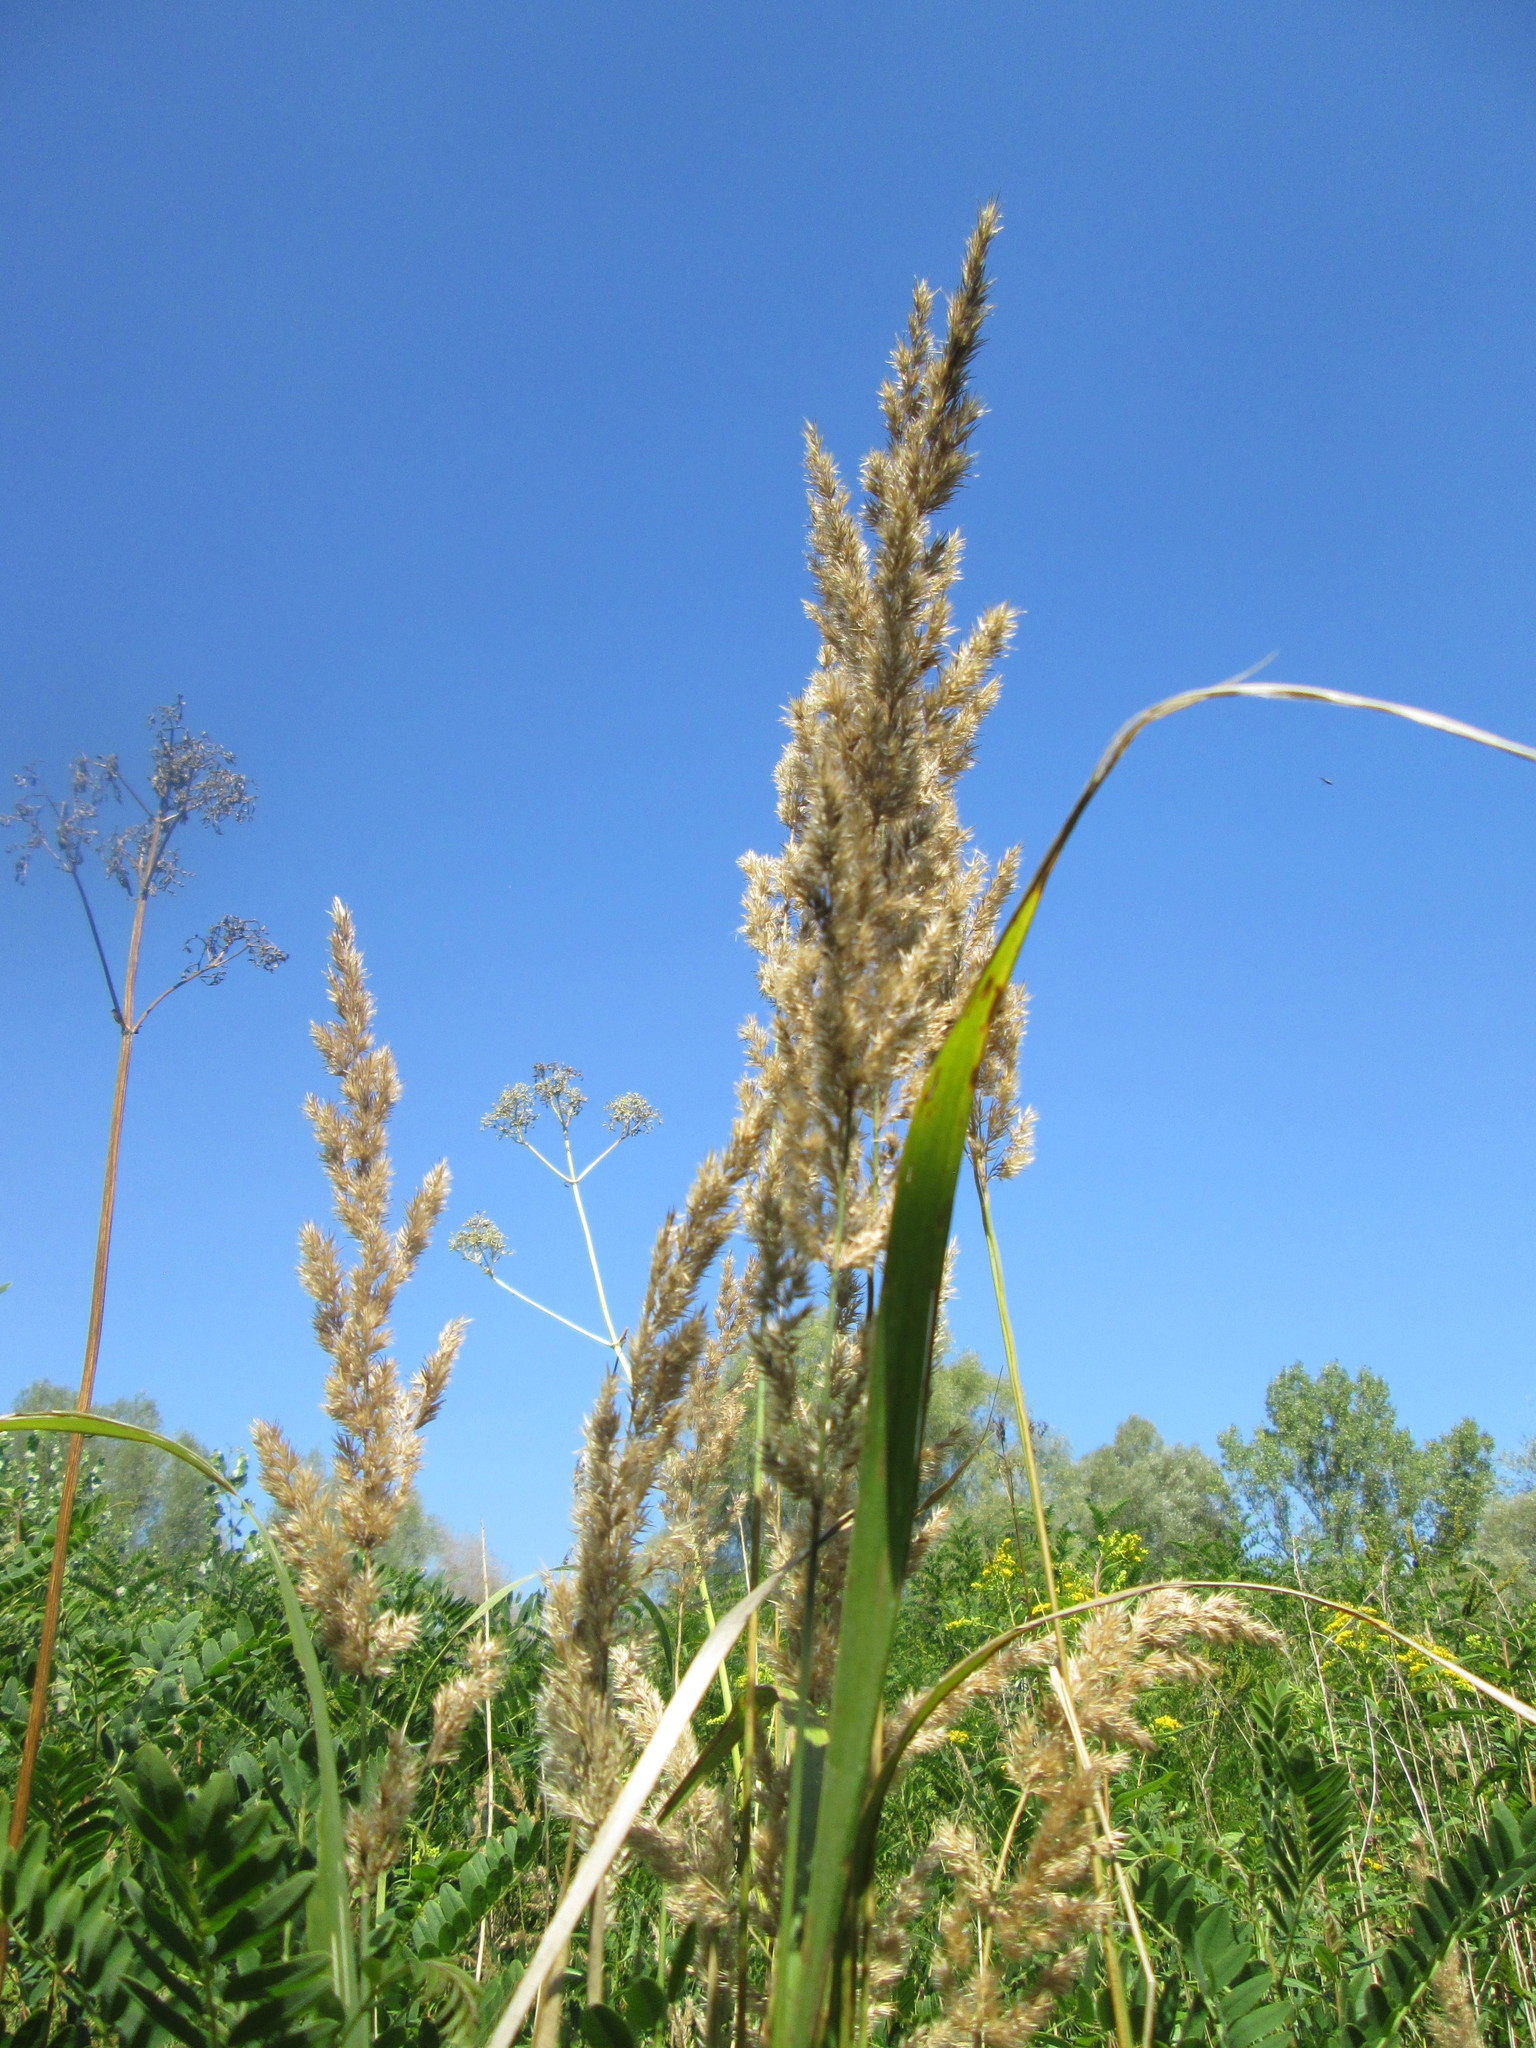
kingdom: Plantae
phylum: Tracheophyta
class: Liliopsida
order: Poales
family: Poaceae
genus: Calamagrostis
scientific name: Calamagrostis epigejos
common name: Wood small-reed
